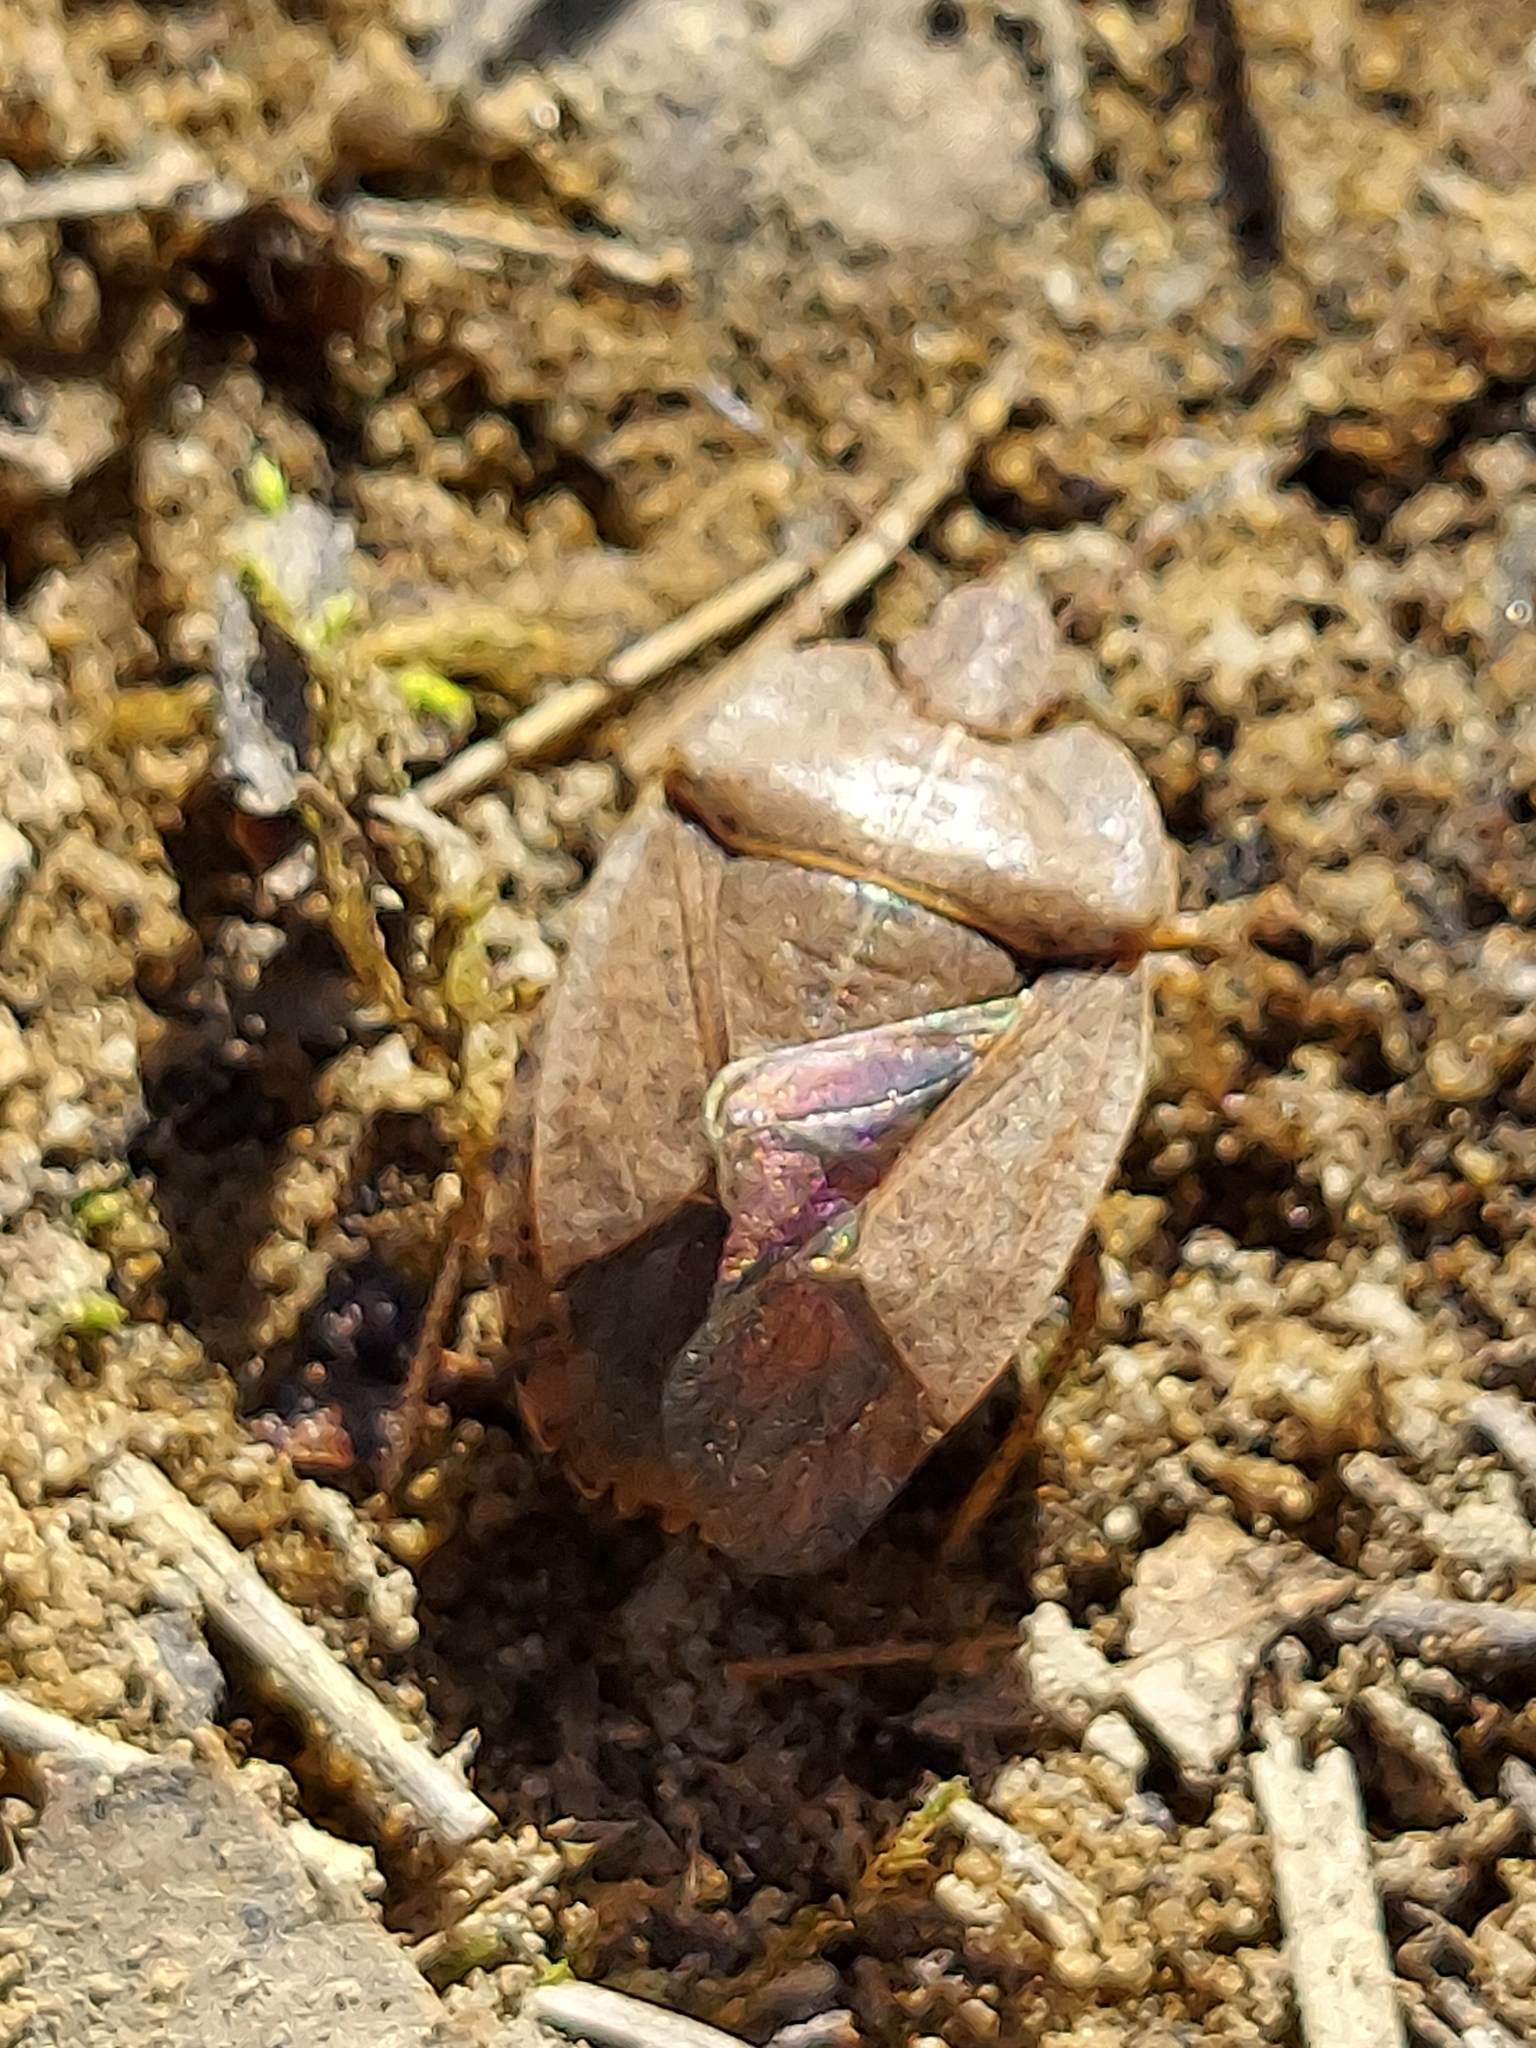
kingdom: Animalia
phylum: Arthropoda
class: Insecta
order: Hemiptera
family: Pentatomidae
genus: Menecles
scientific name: Menecles insertus
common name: Elf shoe stink bug
